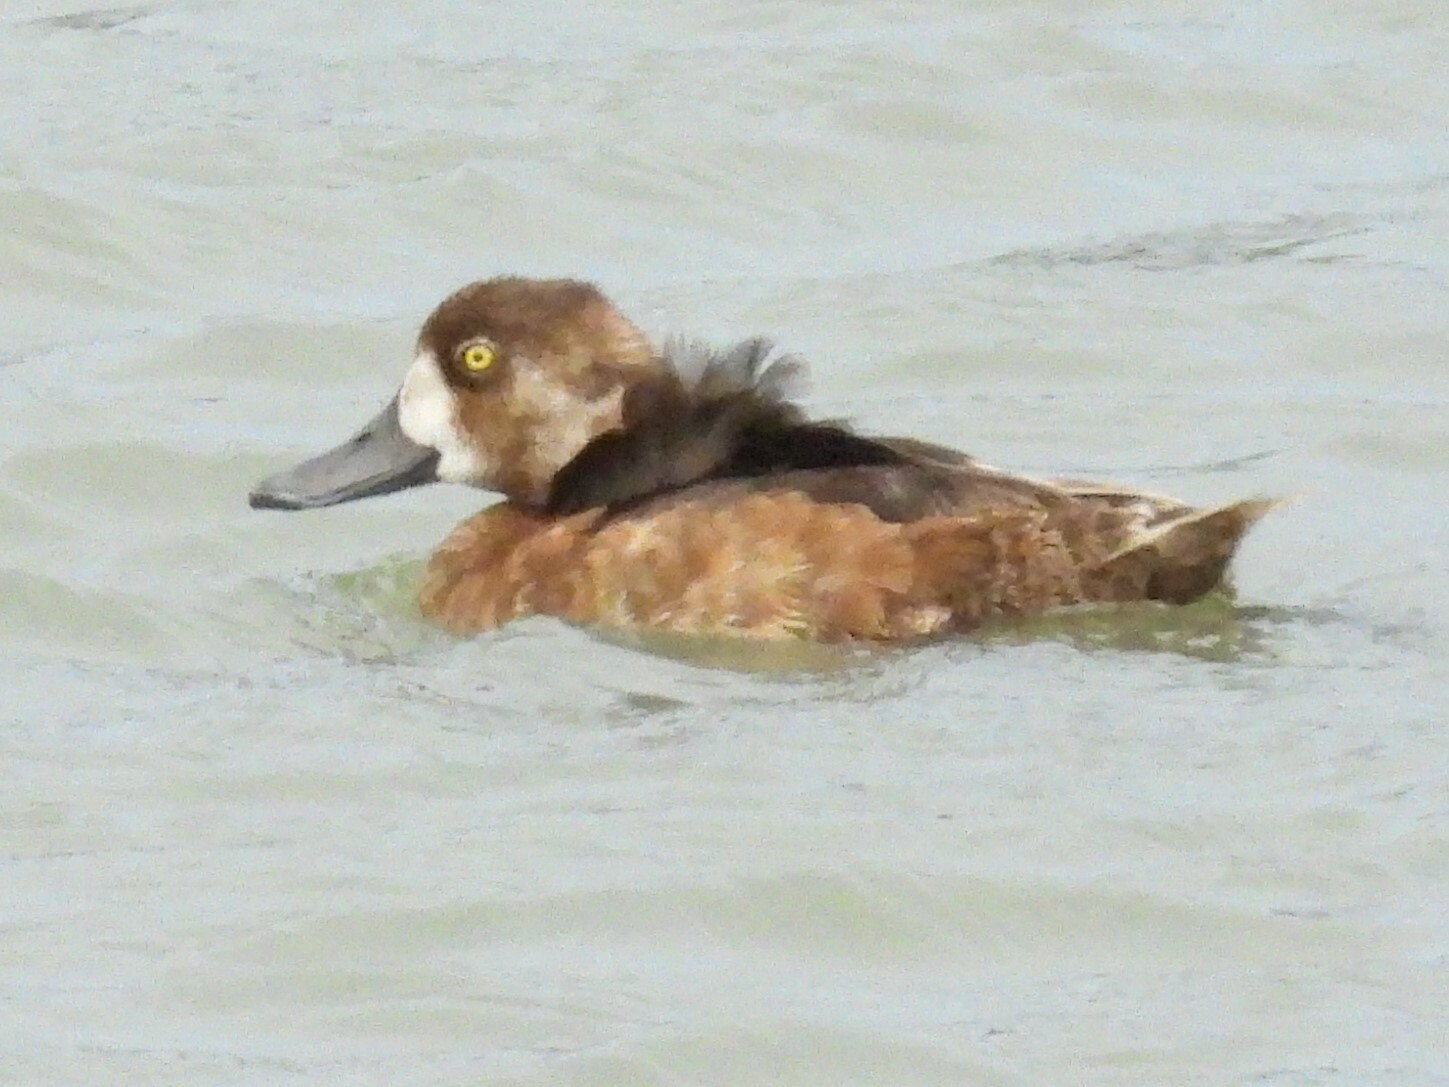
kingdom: Animalia
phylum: Chordata
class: Aves
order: Anseriformes
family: Anatidae
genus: Aythya
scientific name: Aythya marila
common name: Greater scaup
